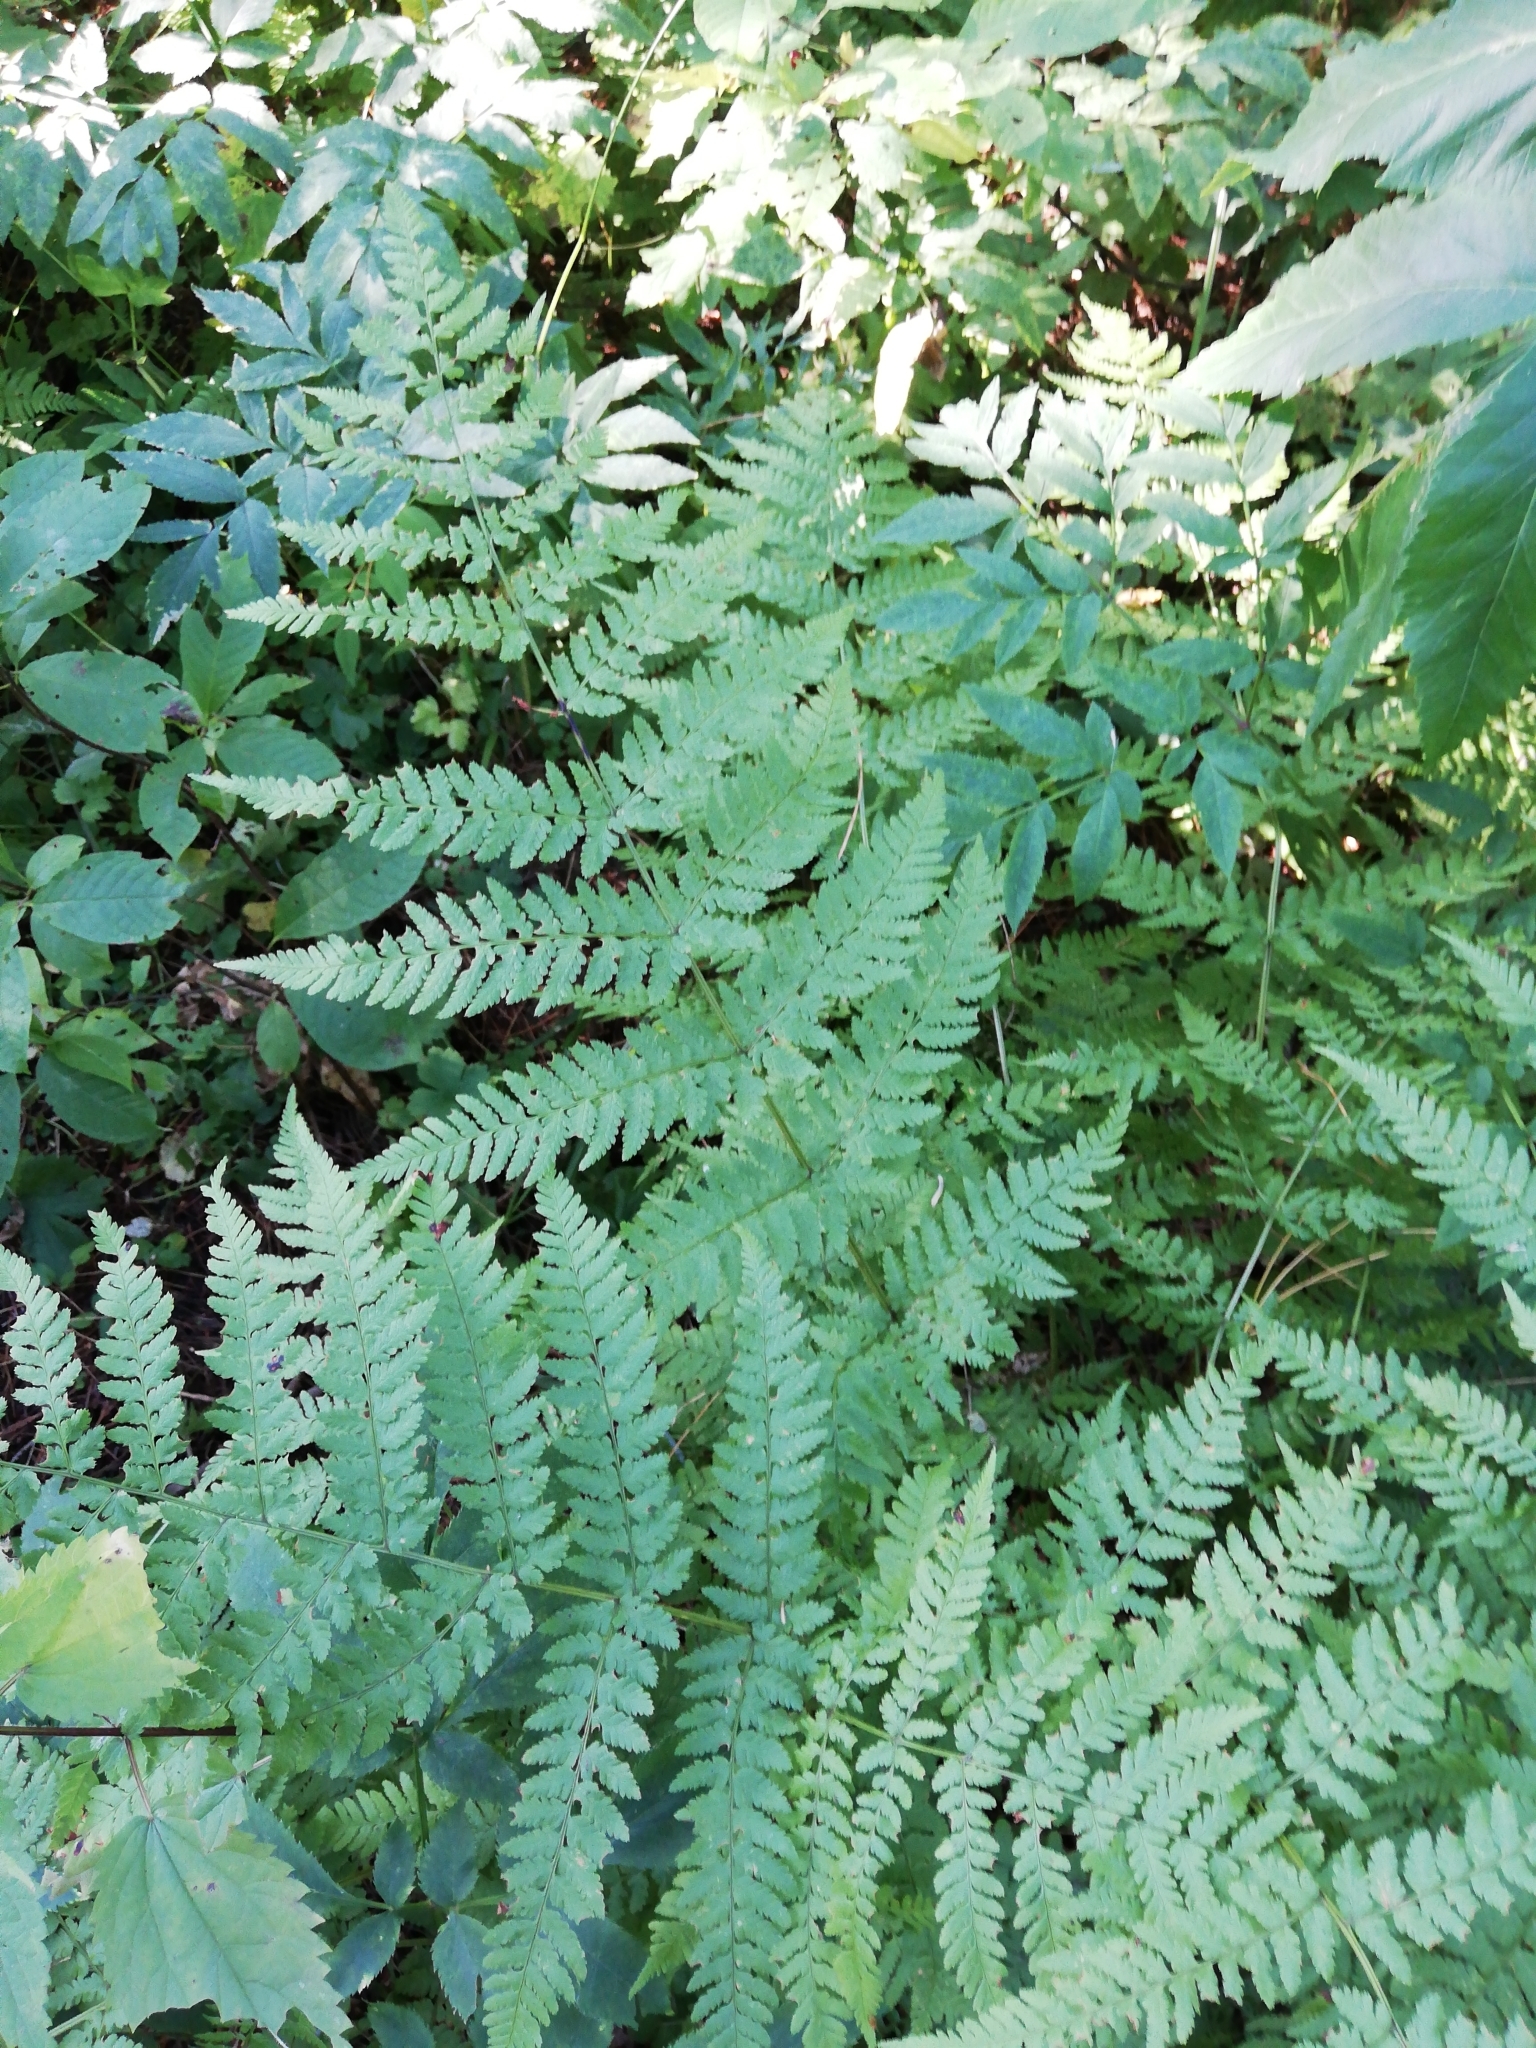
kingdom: Plantae
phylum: Tracheophyta
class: Polypodiopsida
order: Polypodiales
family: Athyriaceae
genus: Athyrium
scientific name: Athyrium filix-femina
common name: Lady fern
